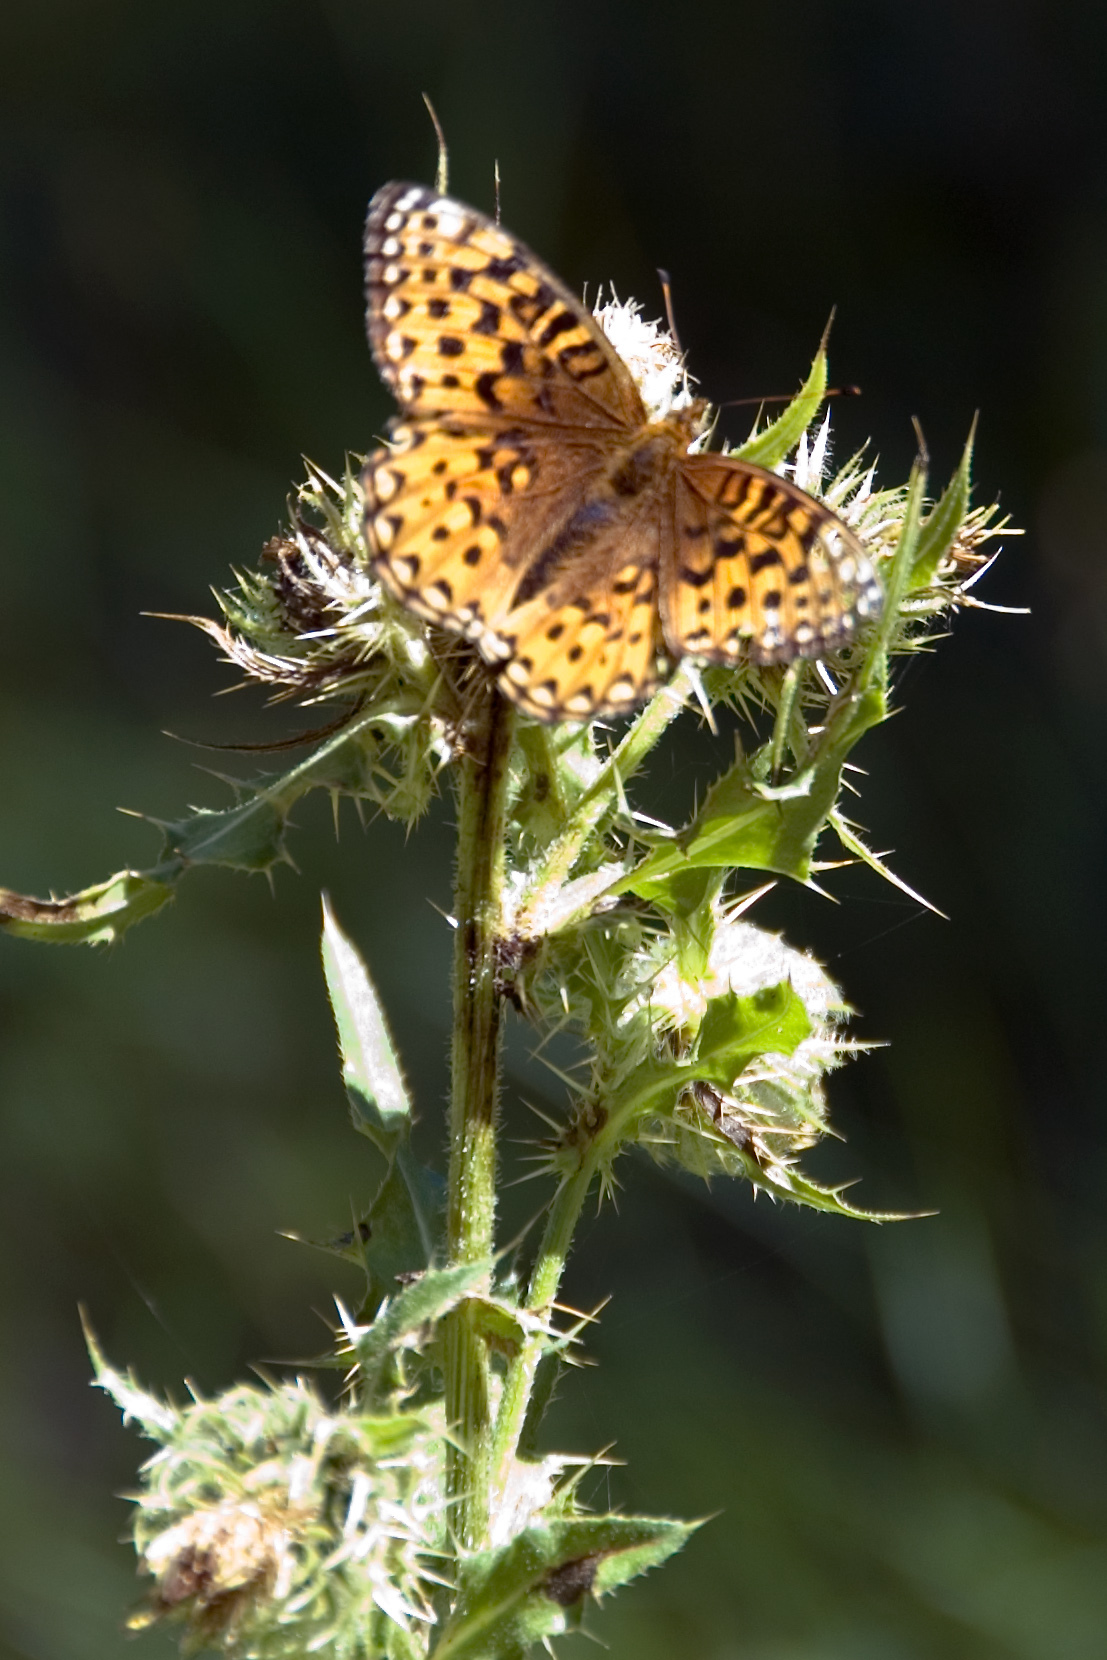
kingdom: Animalia
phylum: Arthropoda
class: Insecta
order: Lepidoptera
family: Nymphalidae
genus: Speyeria
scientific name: Speyeria mormonia
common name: Mormon fritillary
